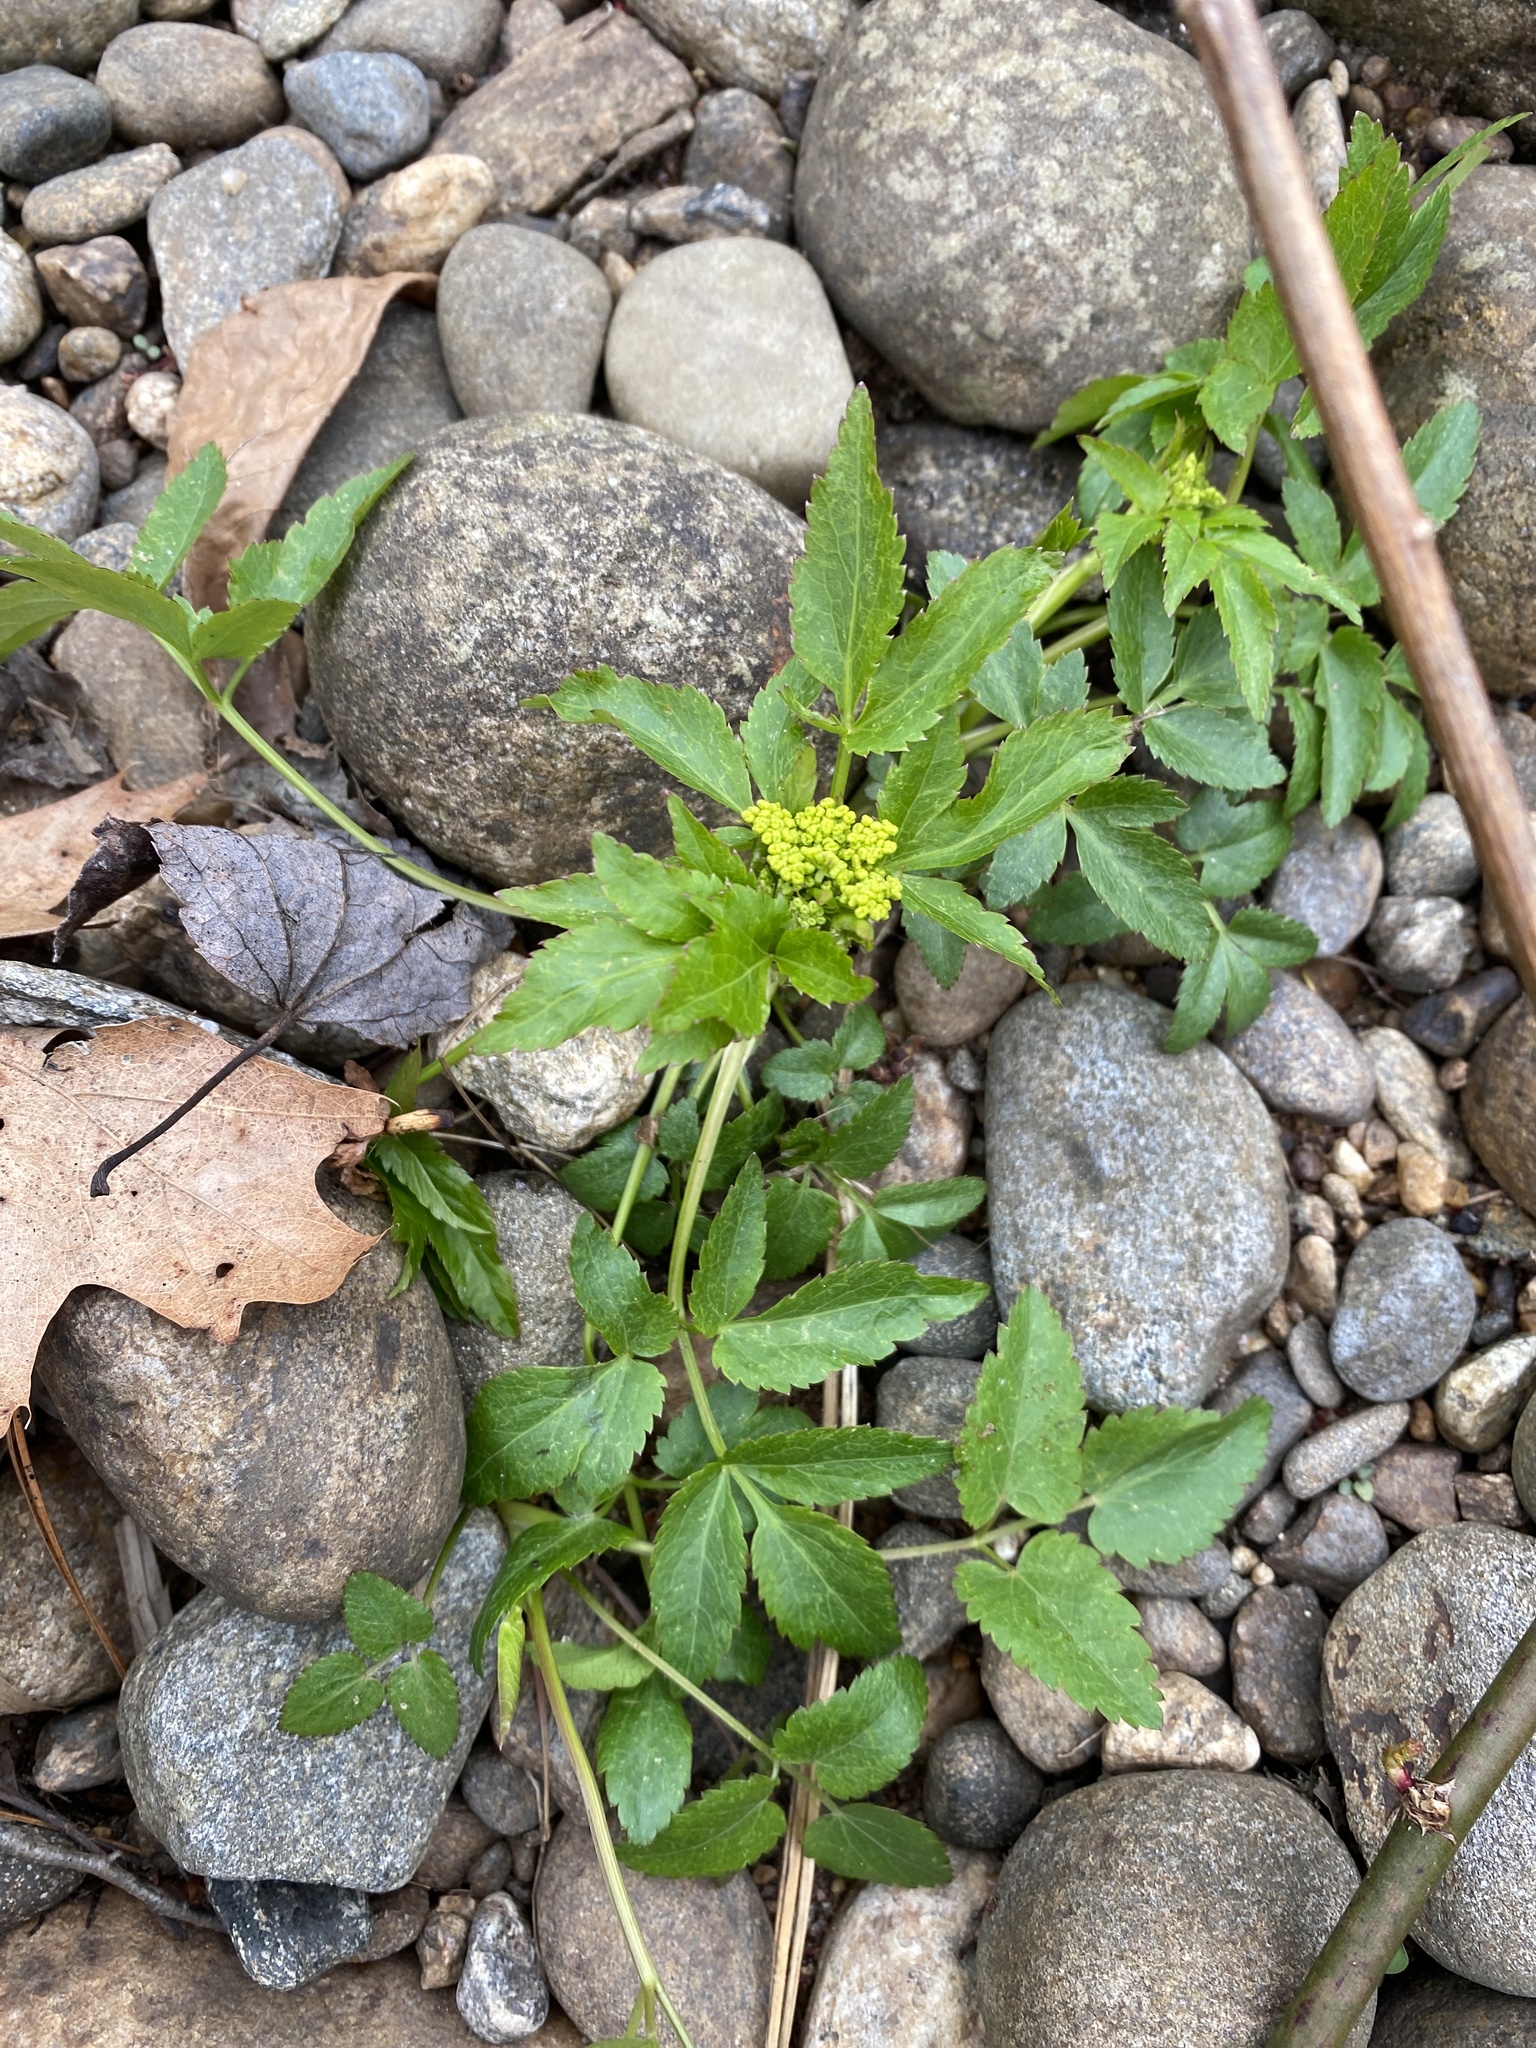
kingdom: Plantae
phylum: Tracheophyta
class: Magnoliopsida
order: Apiales
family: Apiaceae
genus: Zizia
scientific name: Zizia aurea
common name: Golden alexanders
